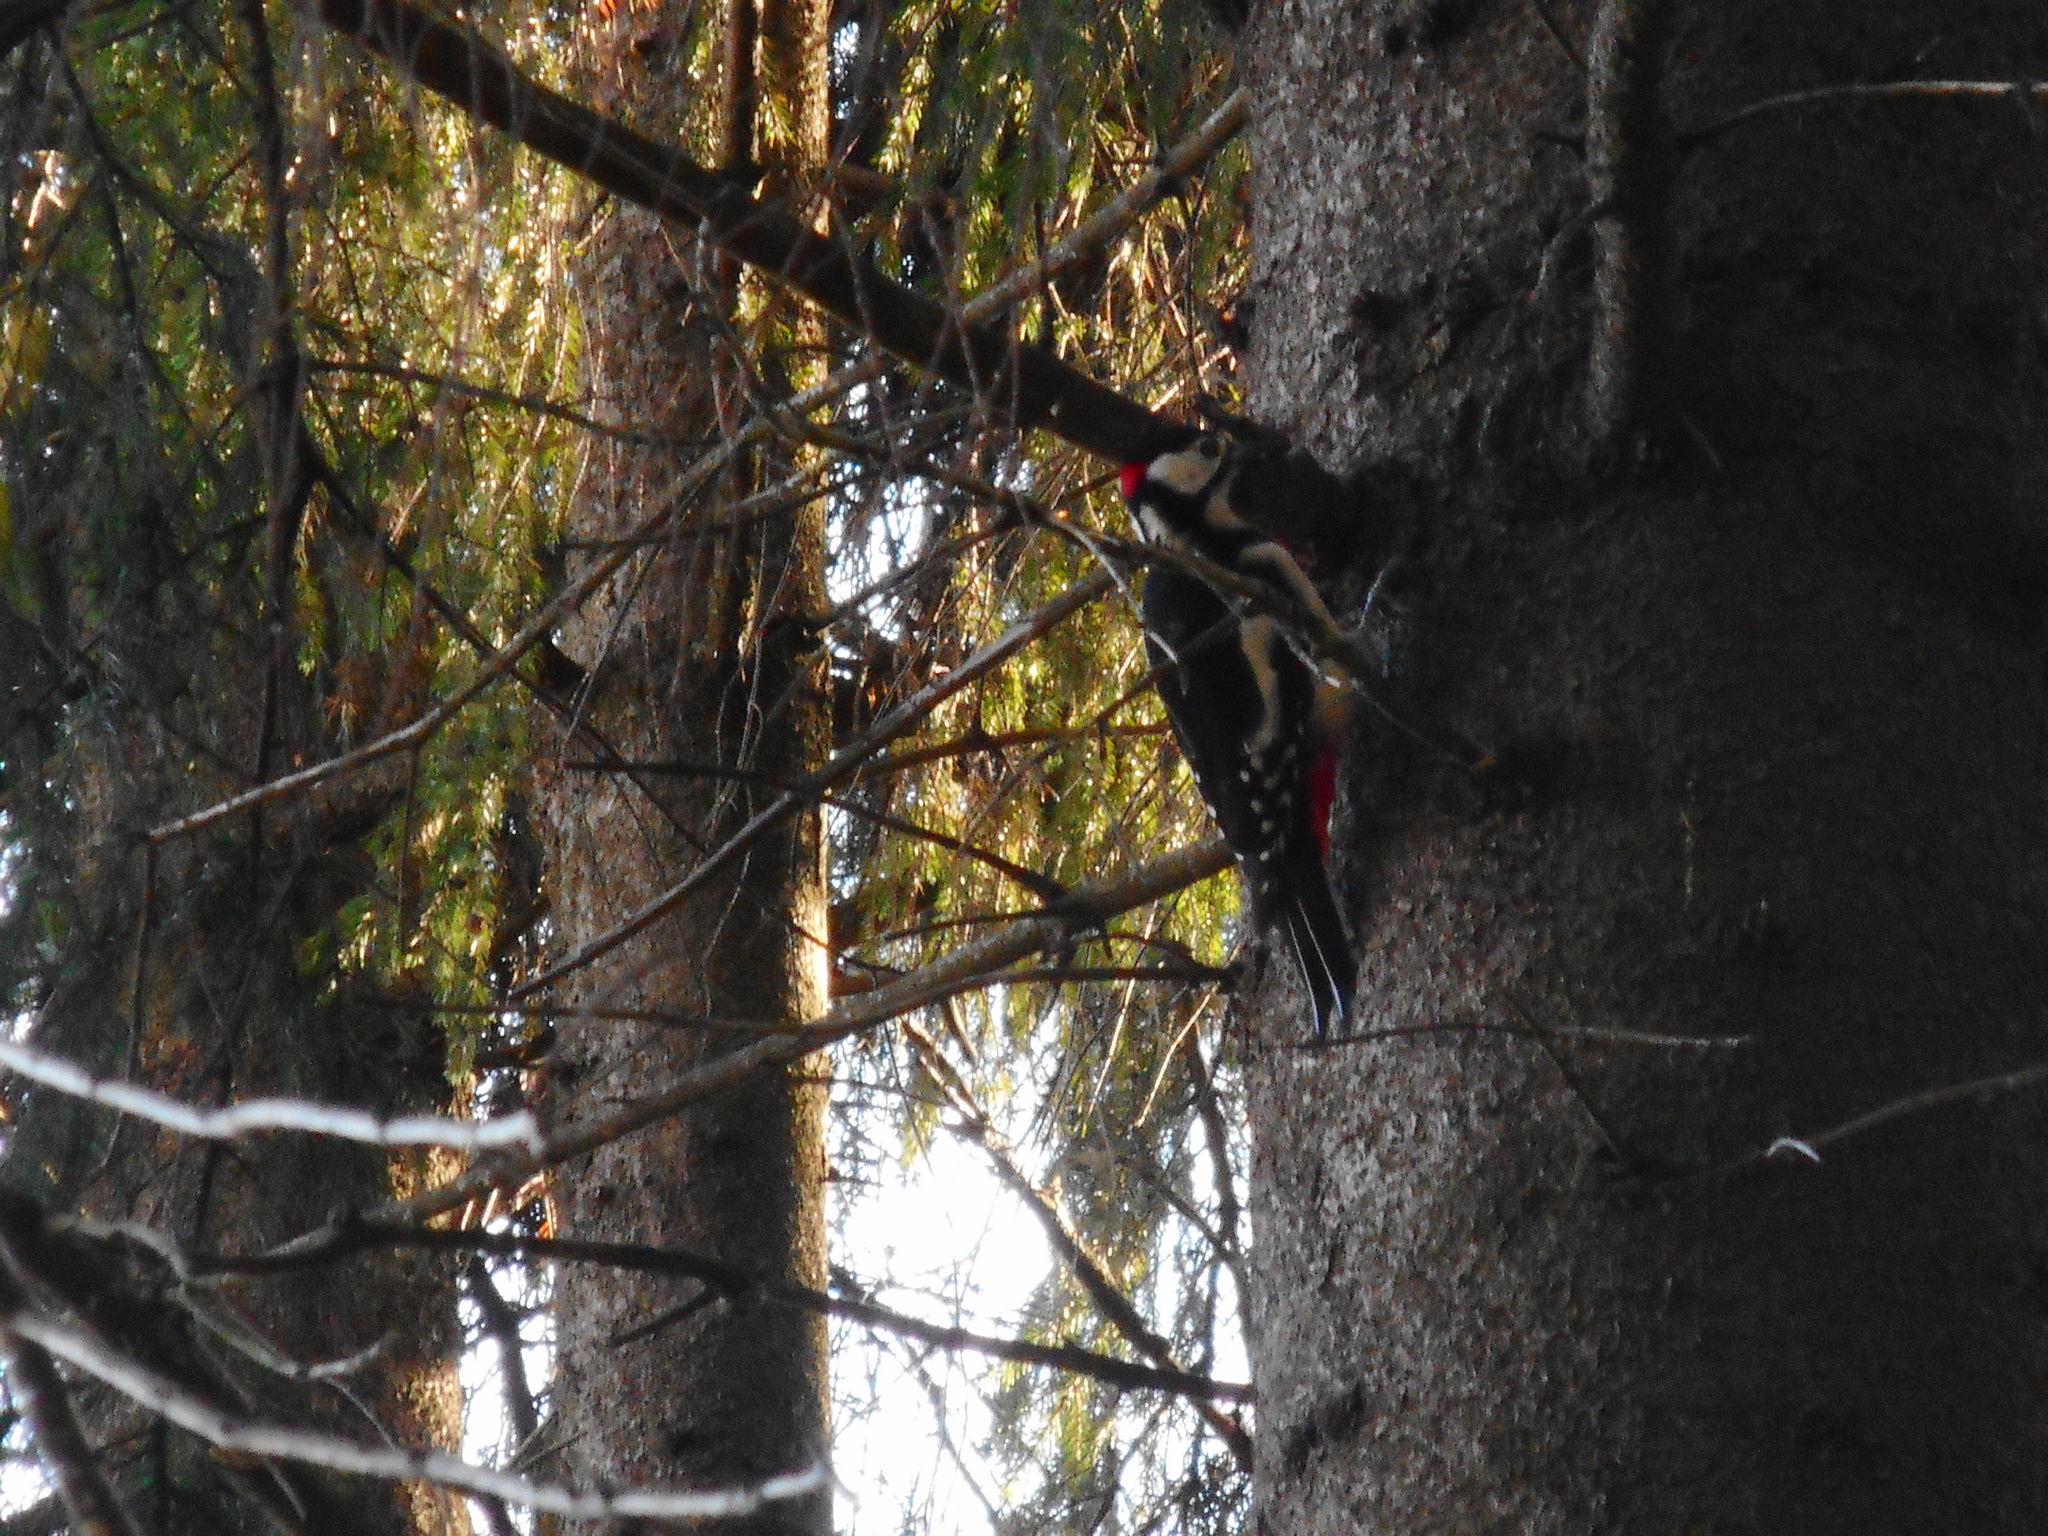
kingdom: Animalia
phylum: Chordata
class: Aves
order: Piciformes
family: Picidae
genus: Dendrocopos
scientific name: Dendrocopos major
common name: Great spotted woodpecker
